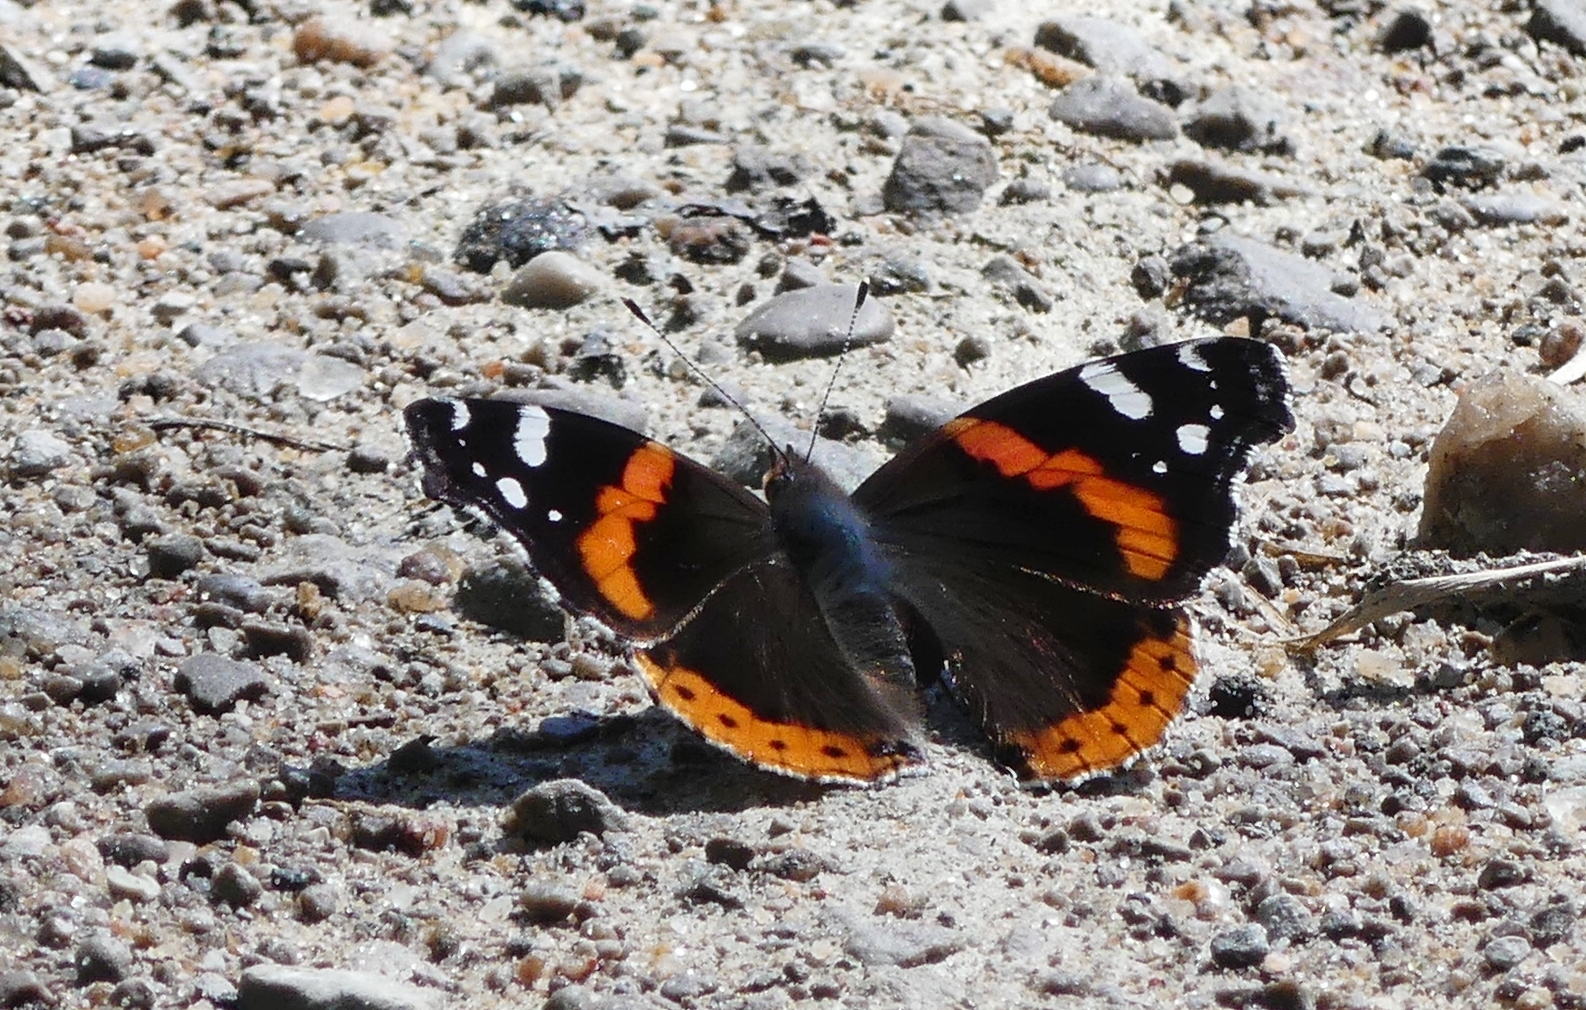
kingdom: Animalia
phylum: Arthropoda
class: Insecta
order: Lepidoptera
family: Nymphalidae
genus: Vanessa
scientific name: Vanessa atalanta
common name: Red admiral
